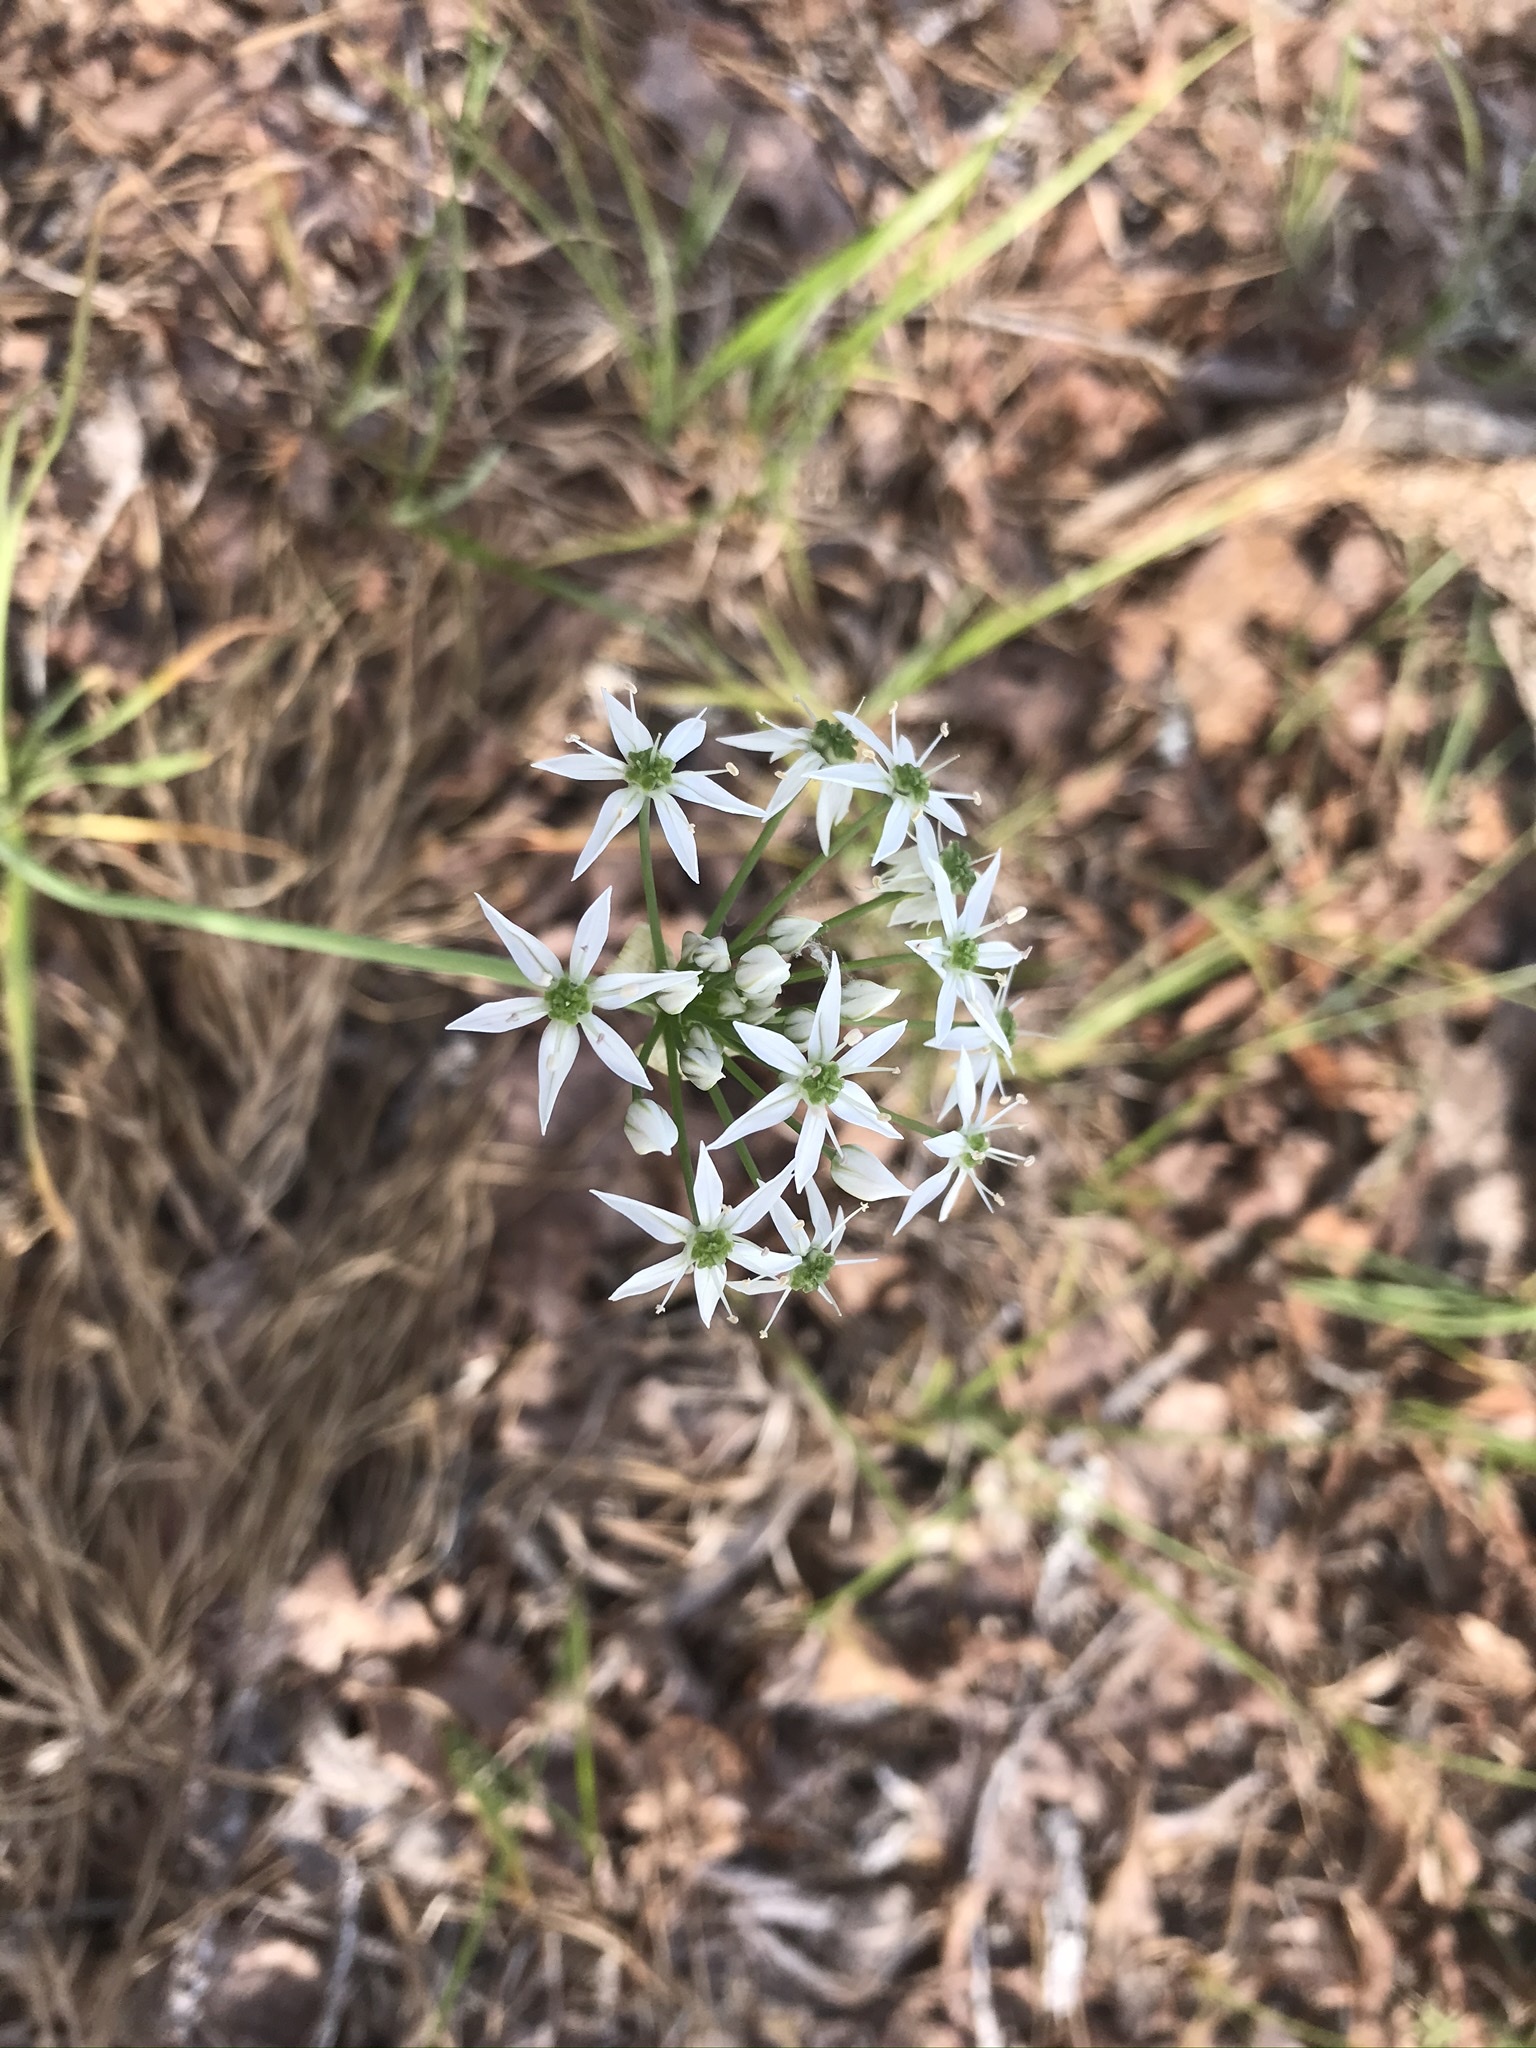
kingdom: Plantae
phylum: Tracheophyta
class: Liliopsida
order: Asparagales
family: Amaryllidaceae
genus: Allium
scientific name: Allium cuthbertii
